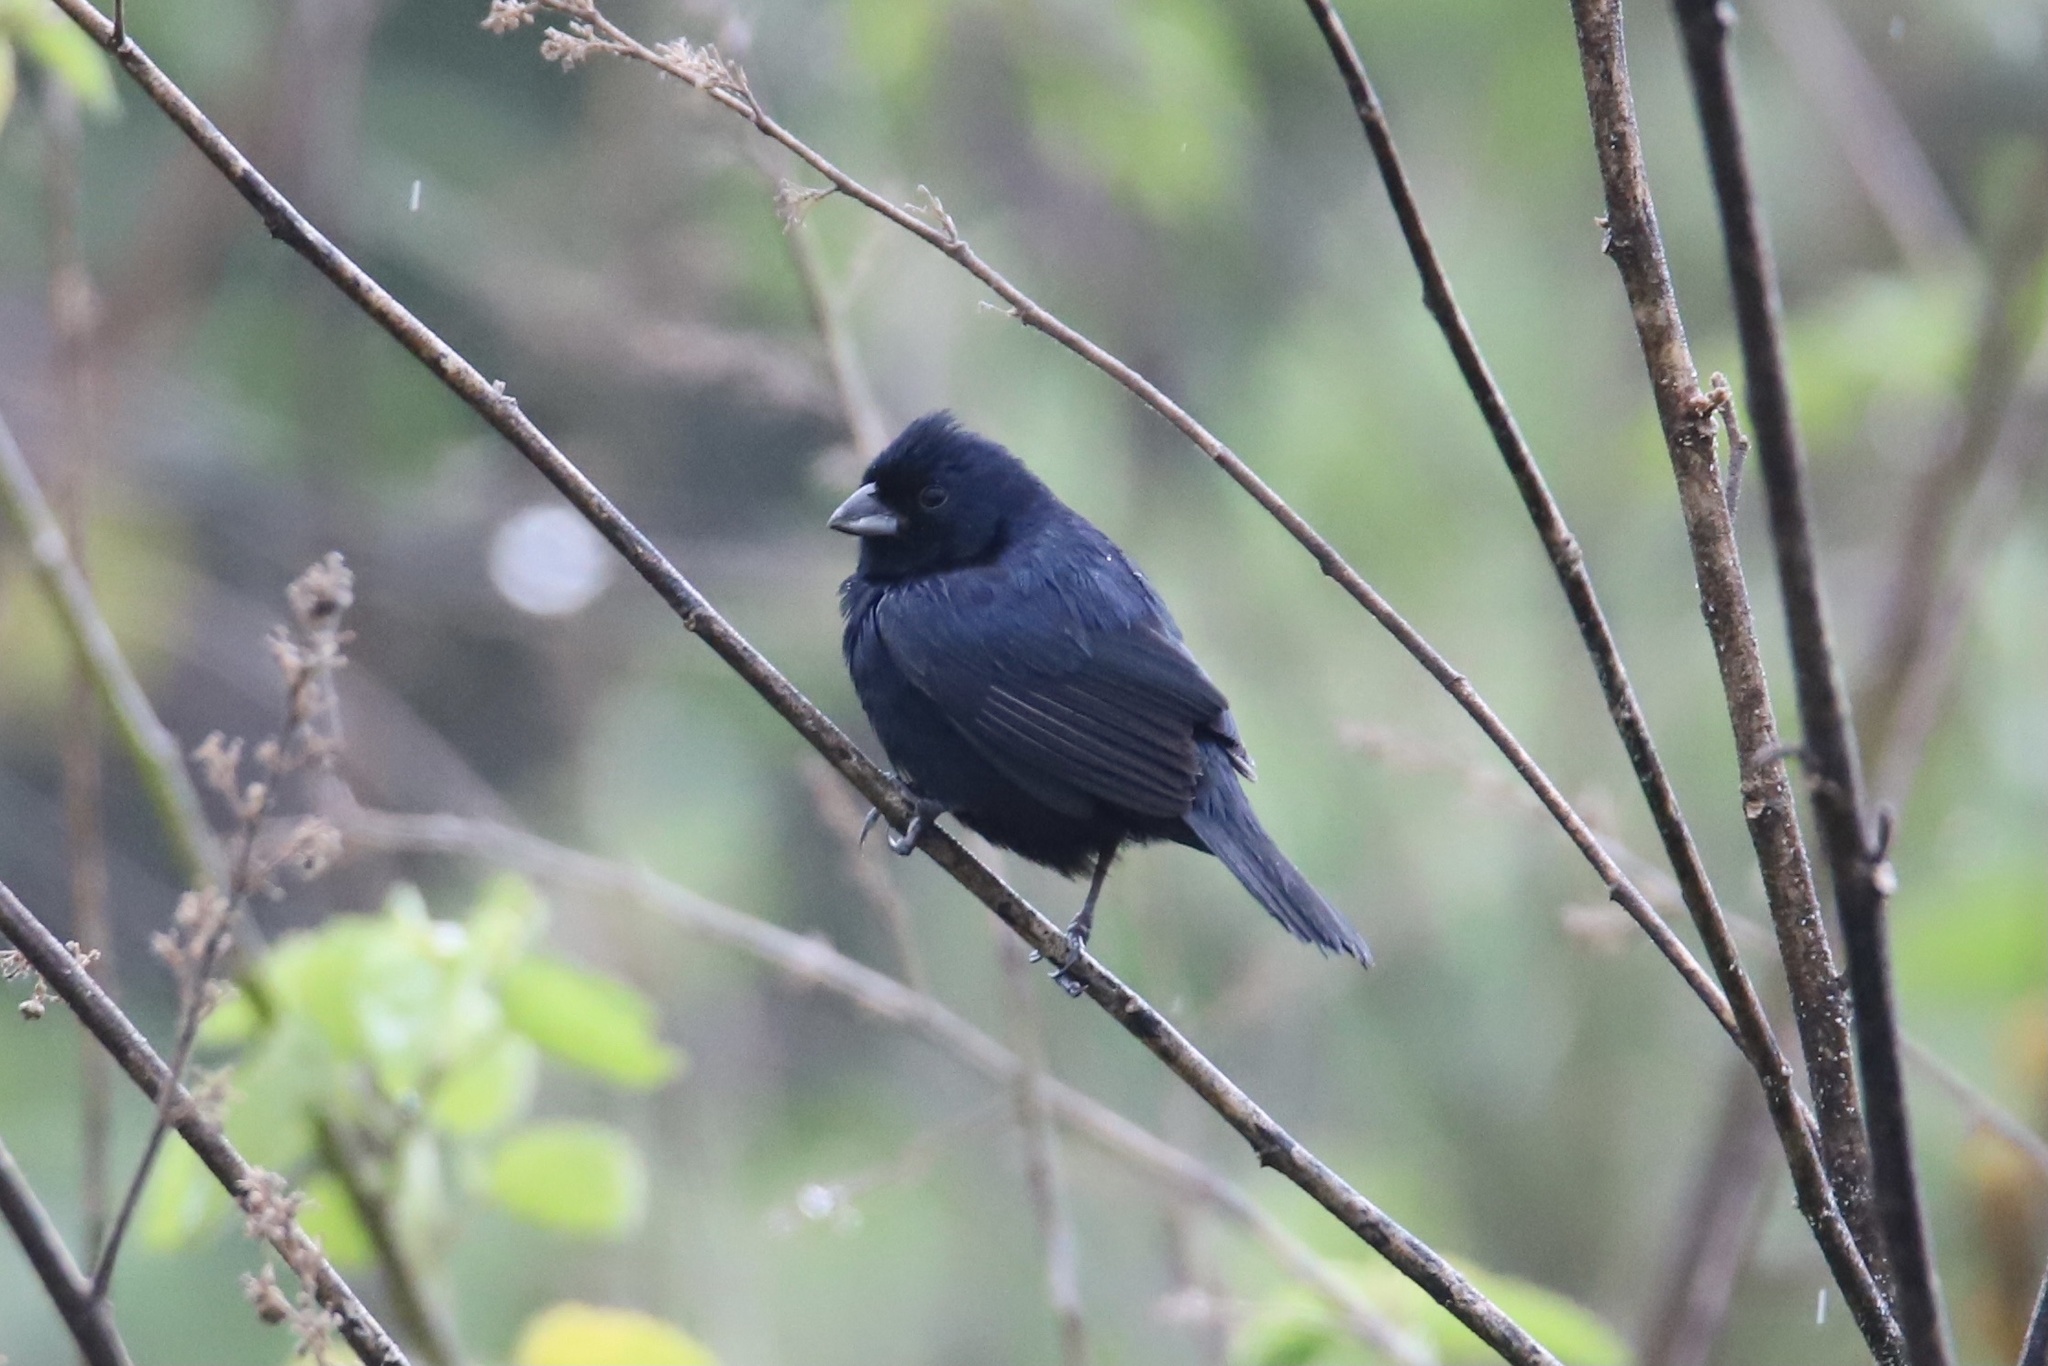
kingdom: Animalia
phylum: Chordata
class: Aves
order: Passeriformes
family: Thraupidae
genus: Volatinia
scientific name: Volatinia jacarina
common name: Blue-black grassquit
